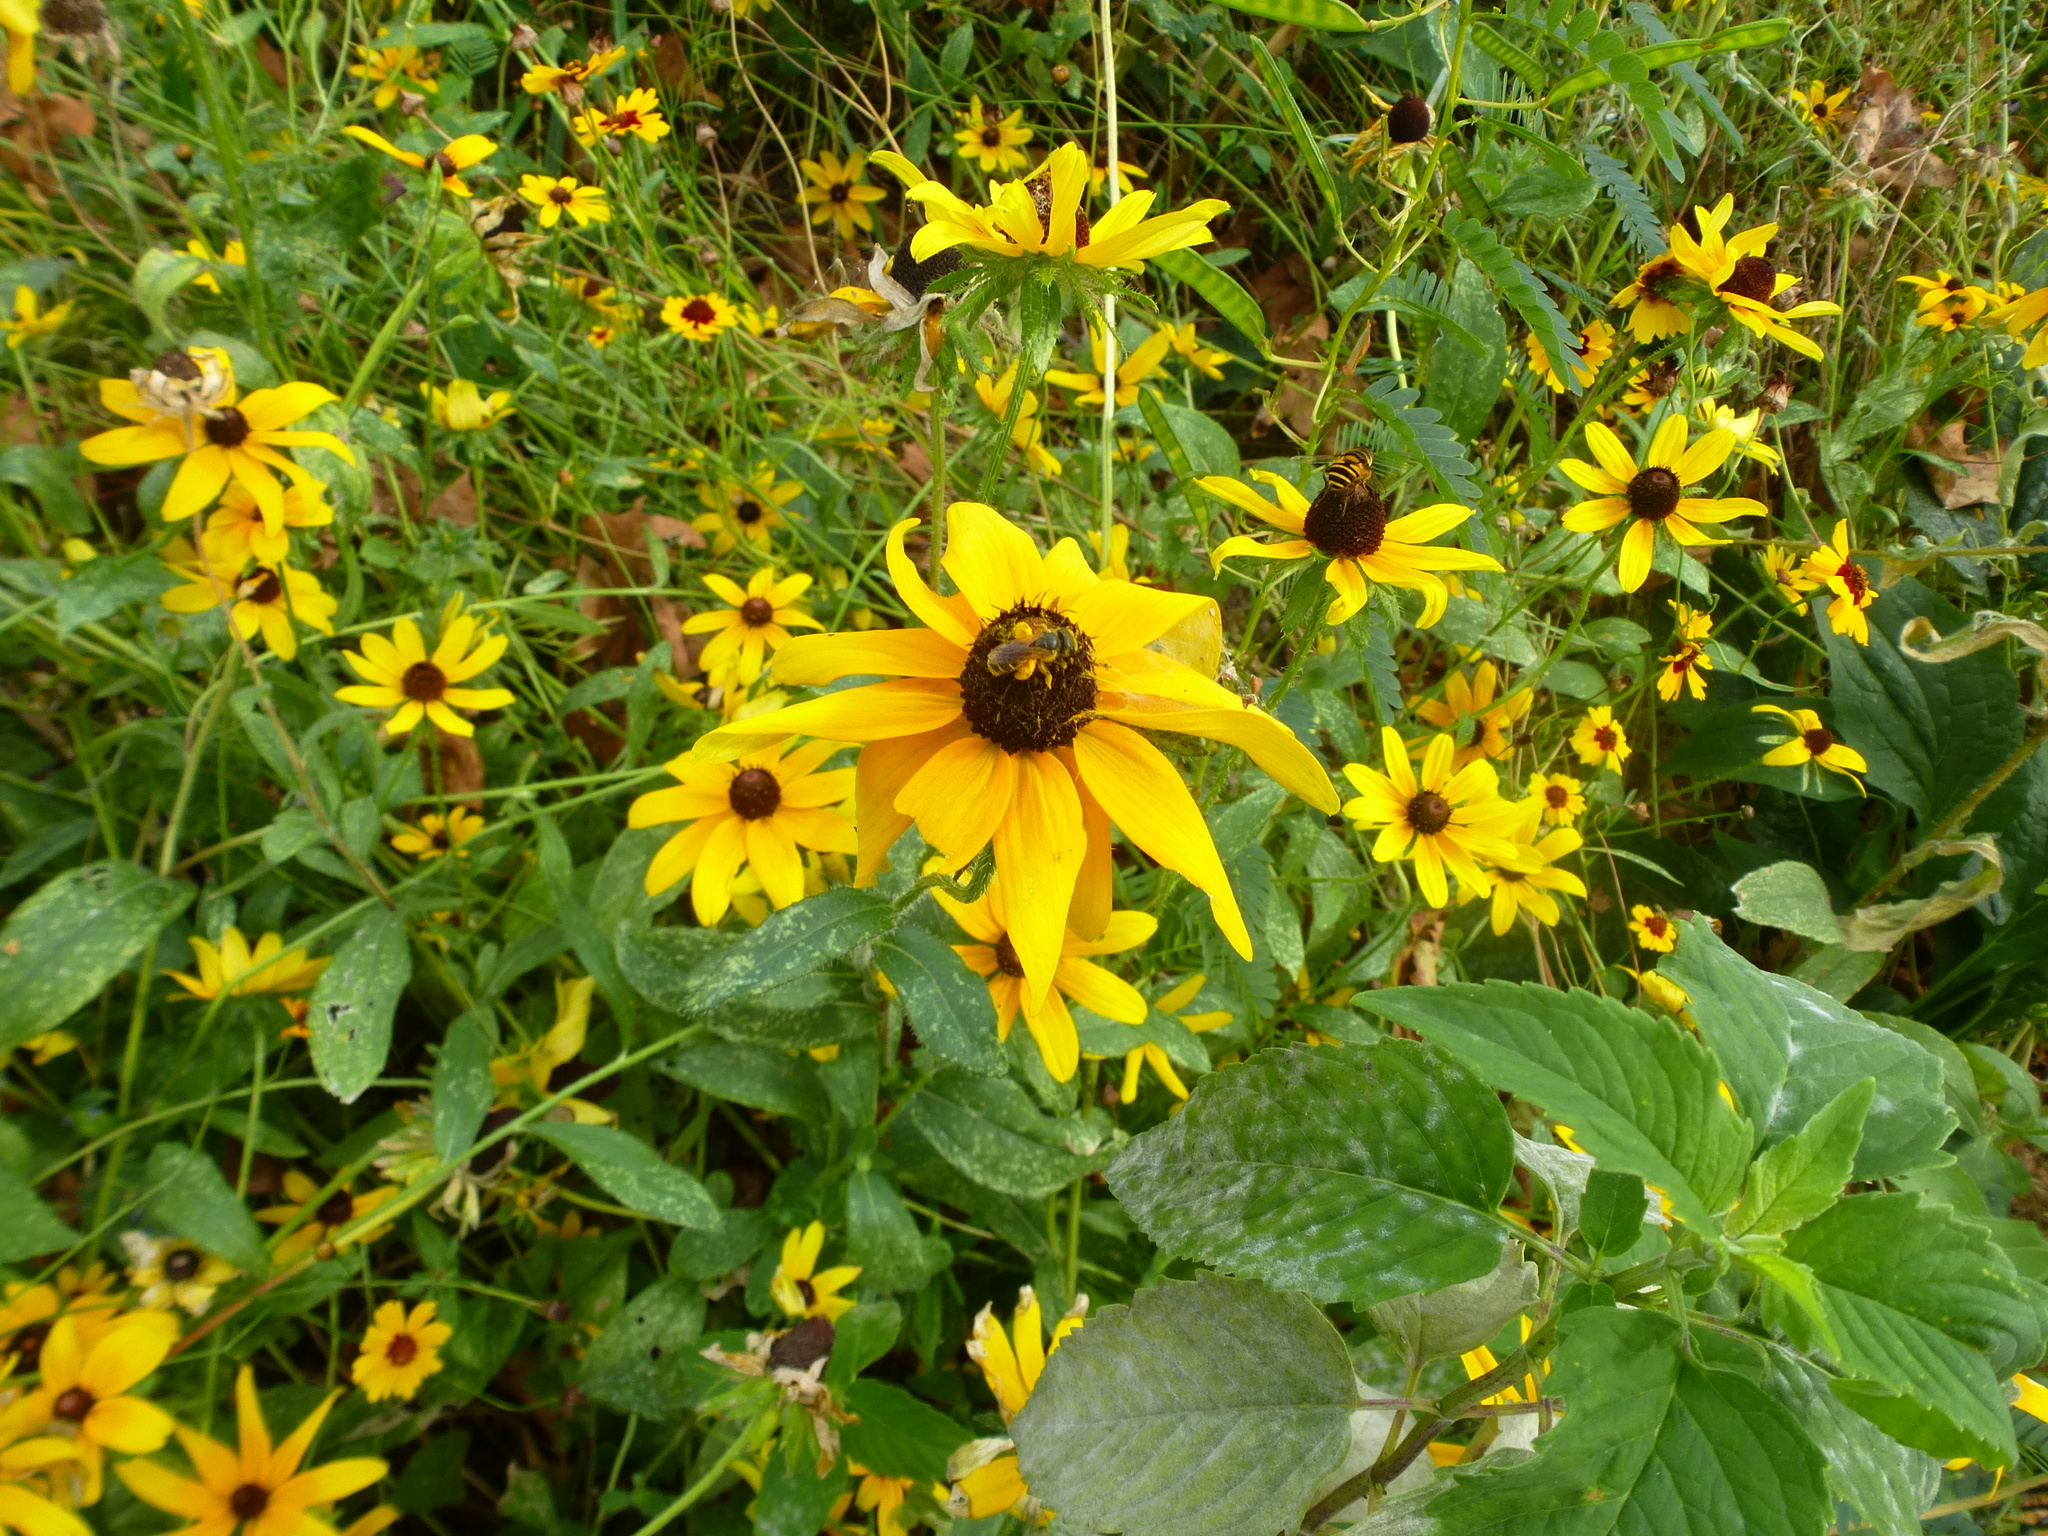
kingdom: Animalia
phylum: Arthropoda
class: Insecta
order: Hymenoptera
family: Halictidae
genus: Halictus
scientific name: Halictus ligatus
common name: Ligated furrow bee
